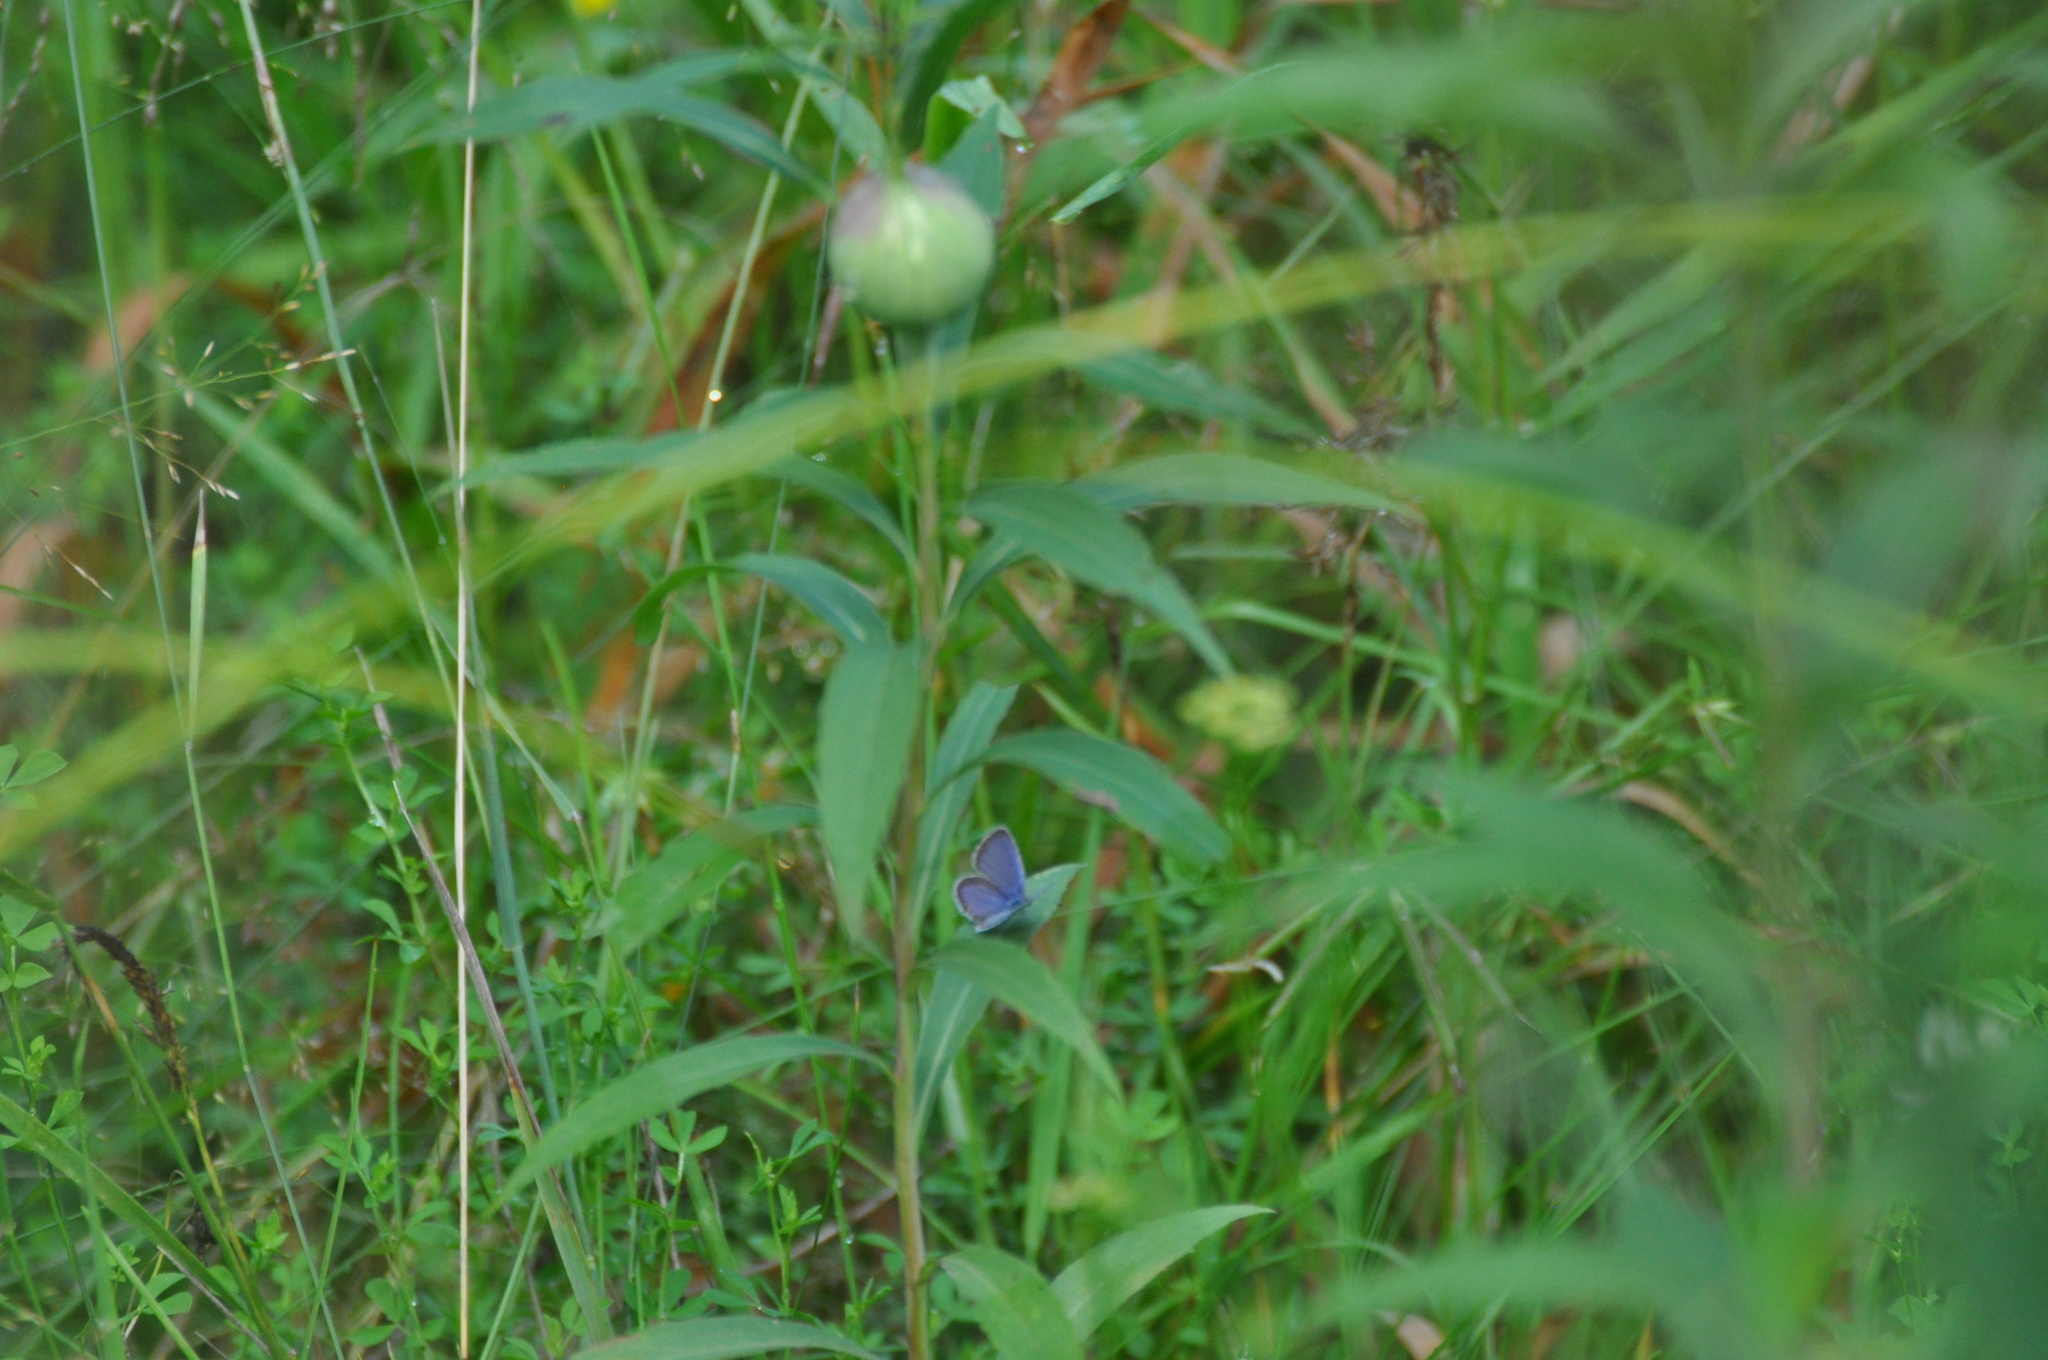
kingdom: Animalia
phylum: Arthropoda
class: Insecta
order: Lepidoptera
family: Lycaenidae
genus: Elkalyce
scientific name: Elkalyce comyntas
